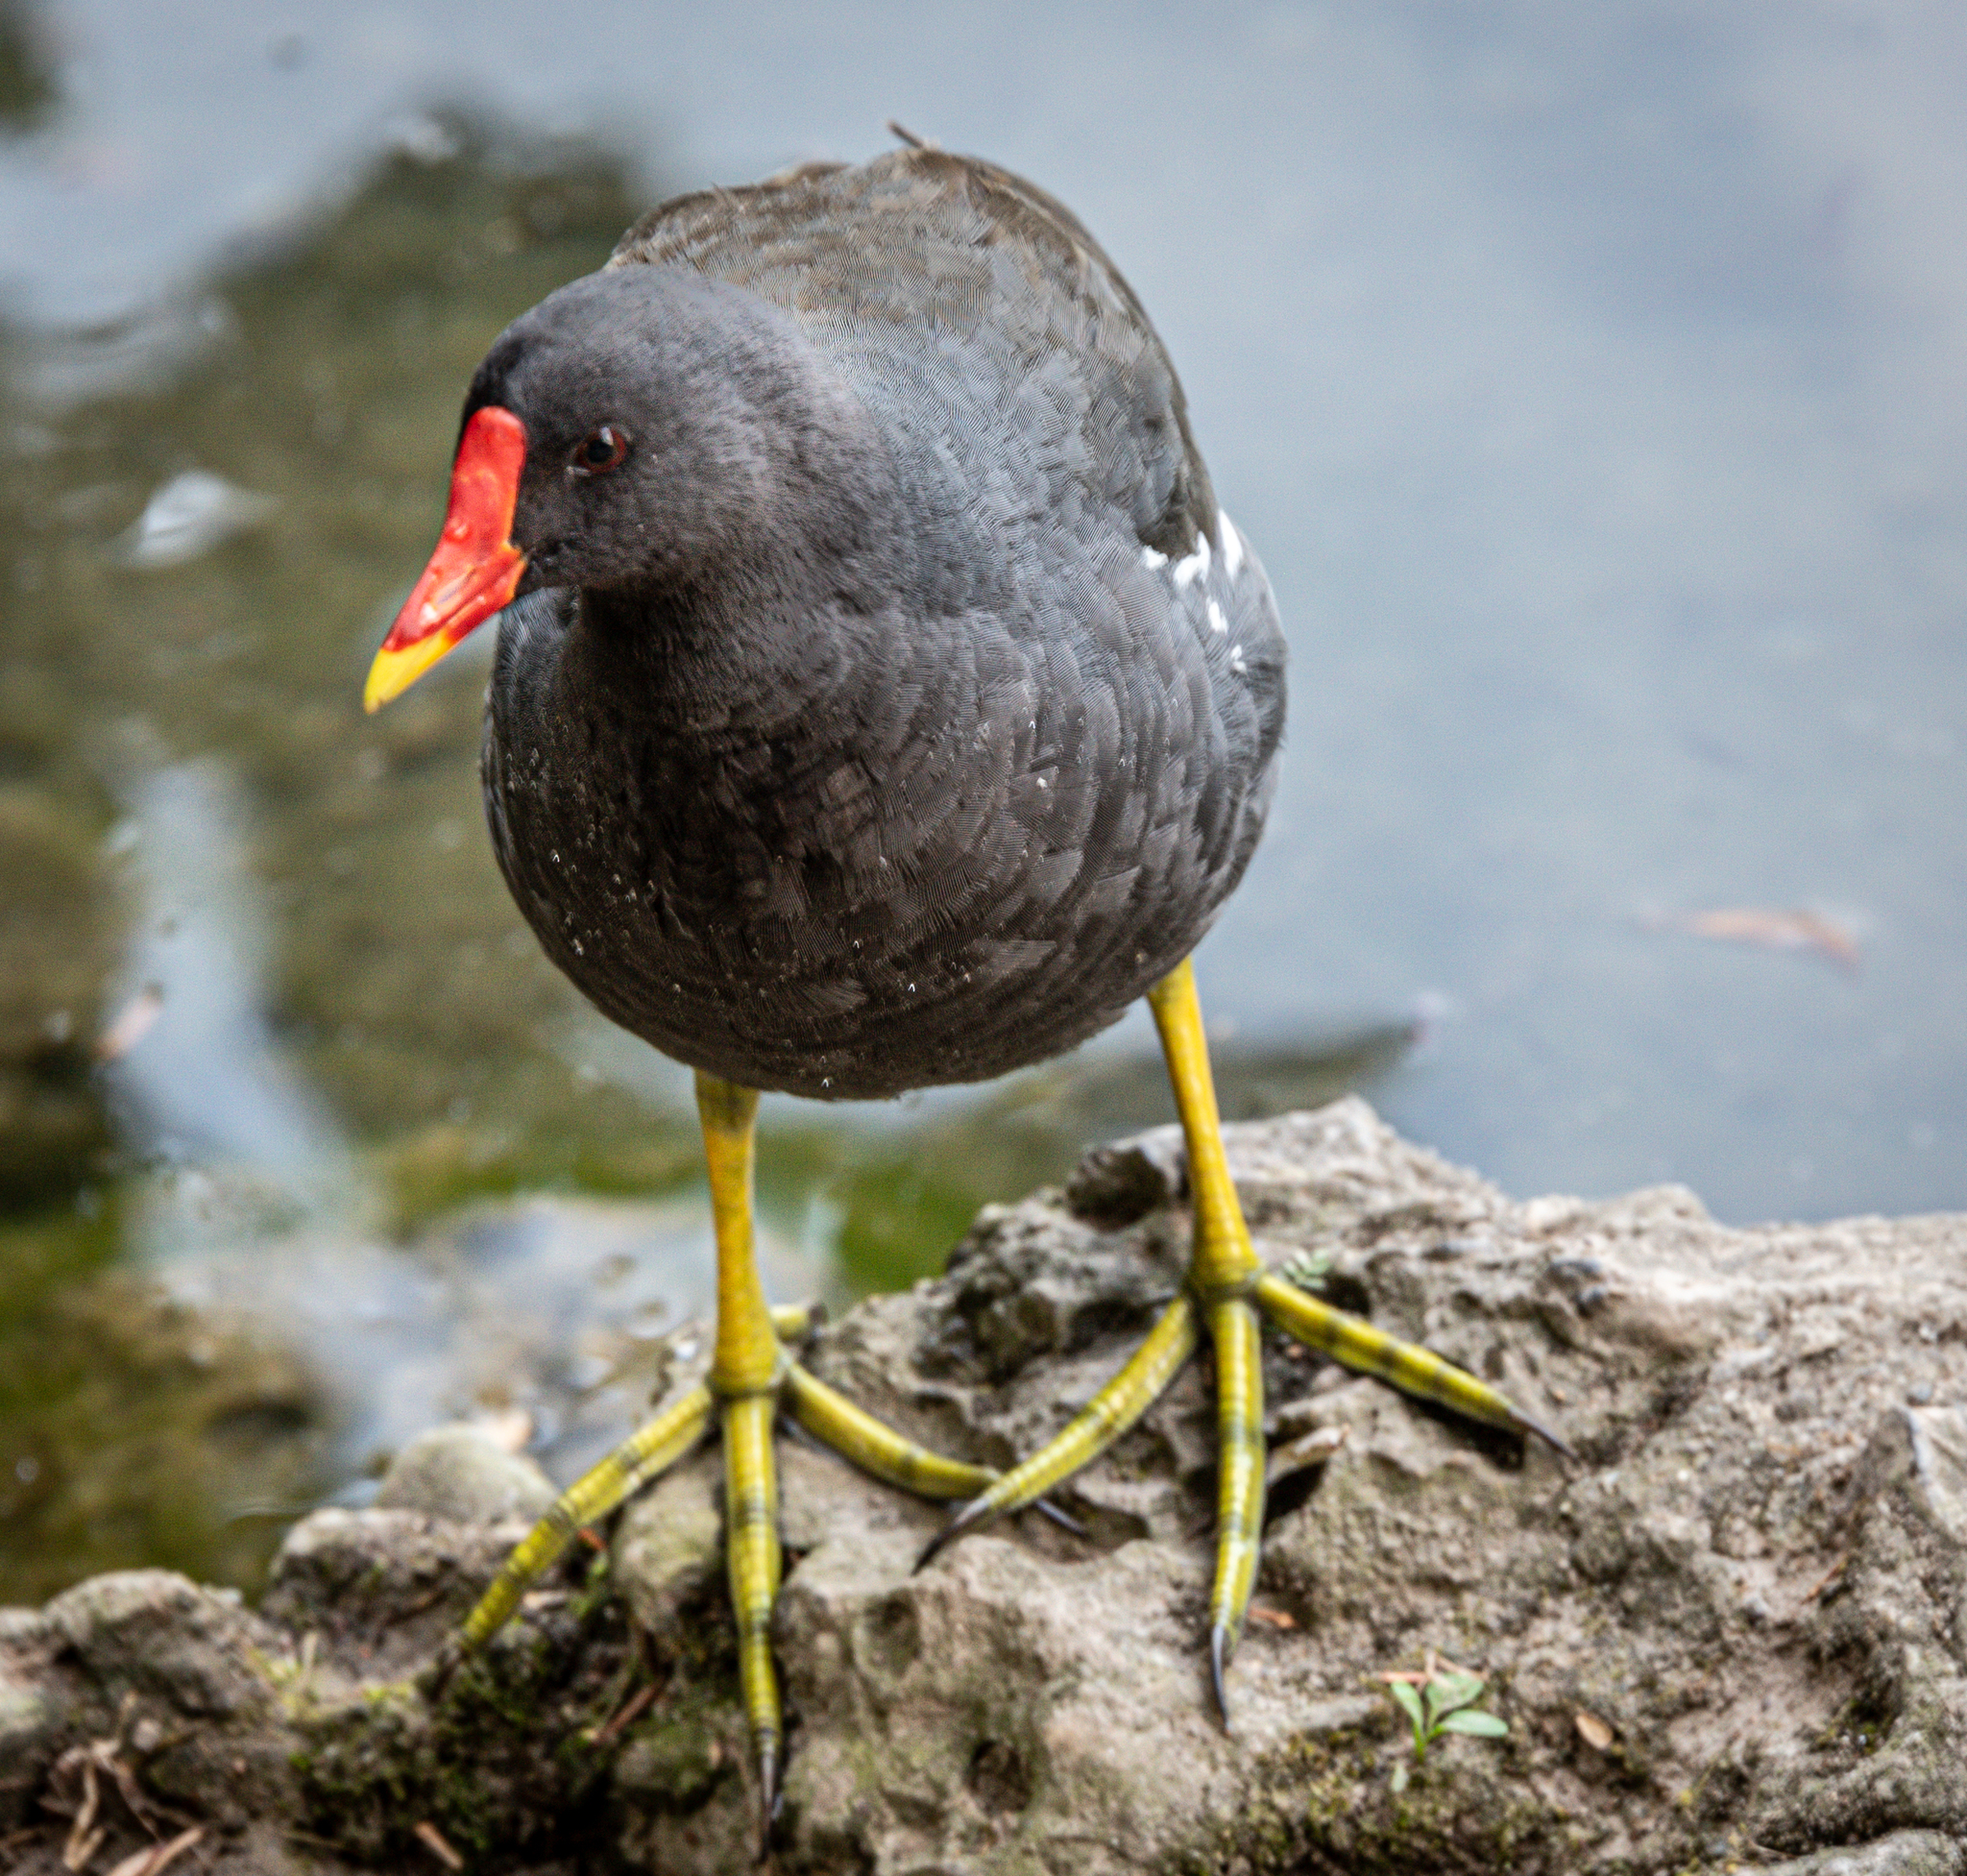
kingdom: Animalia
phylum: Chordata
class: Aves
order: Gruiformes
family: Rallidae
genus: Gallinula
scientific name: Gallinula chloropus
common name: Common moorhen
